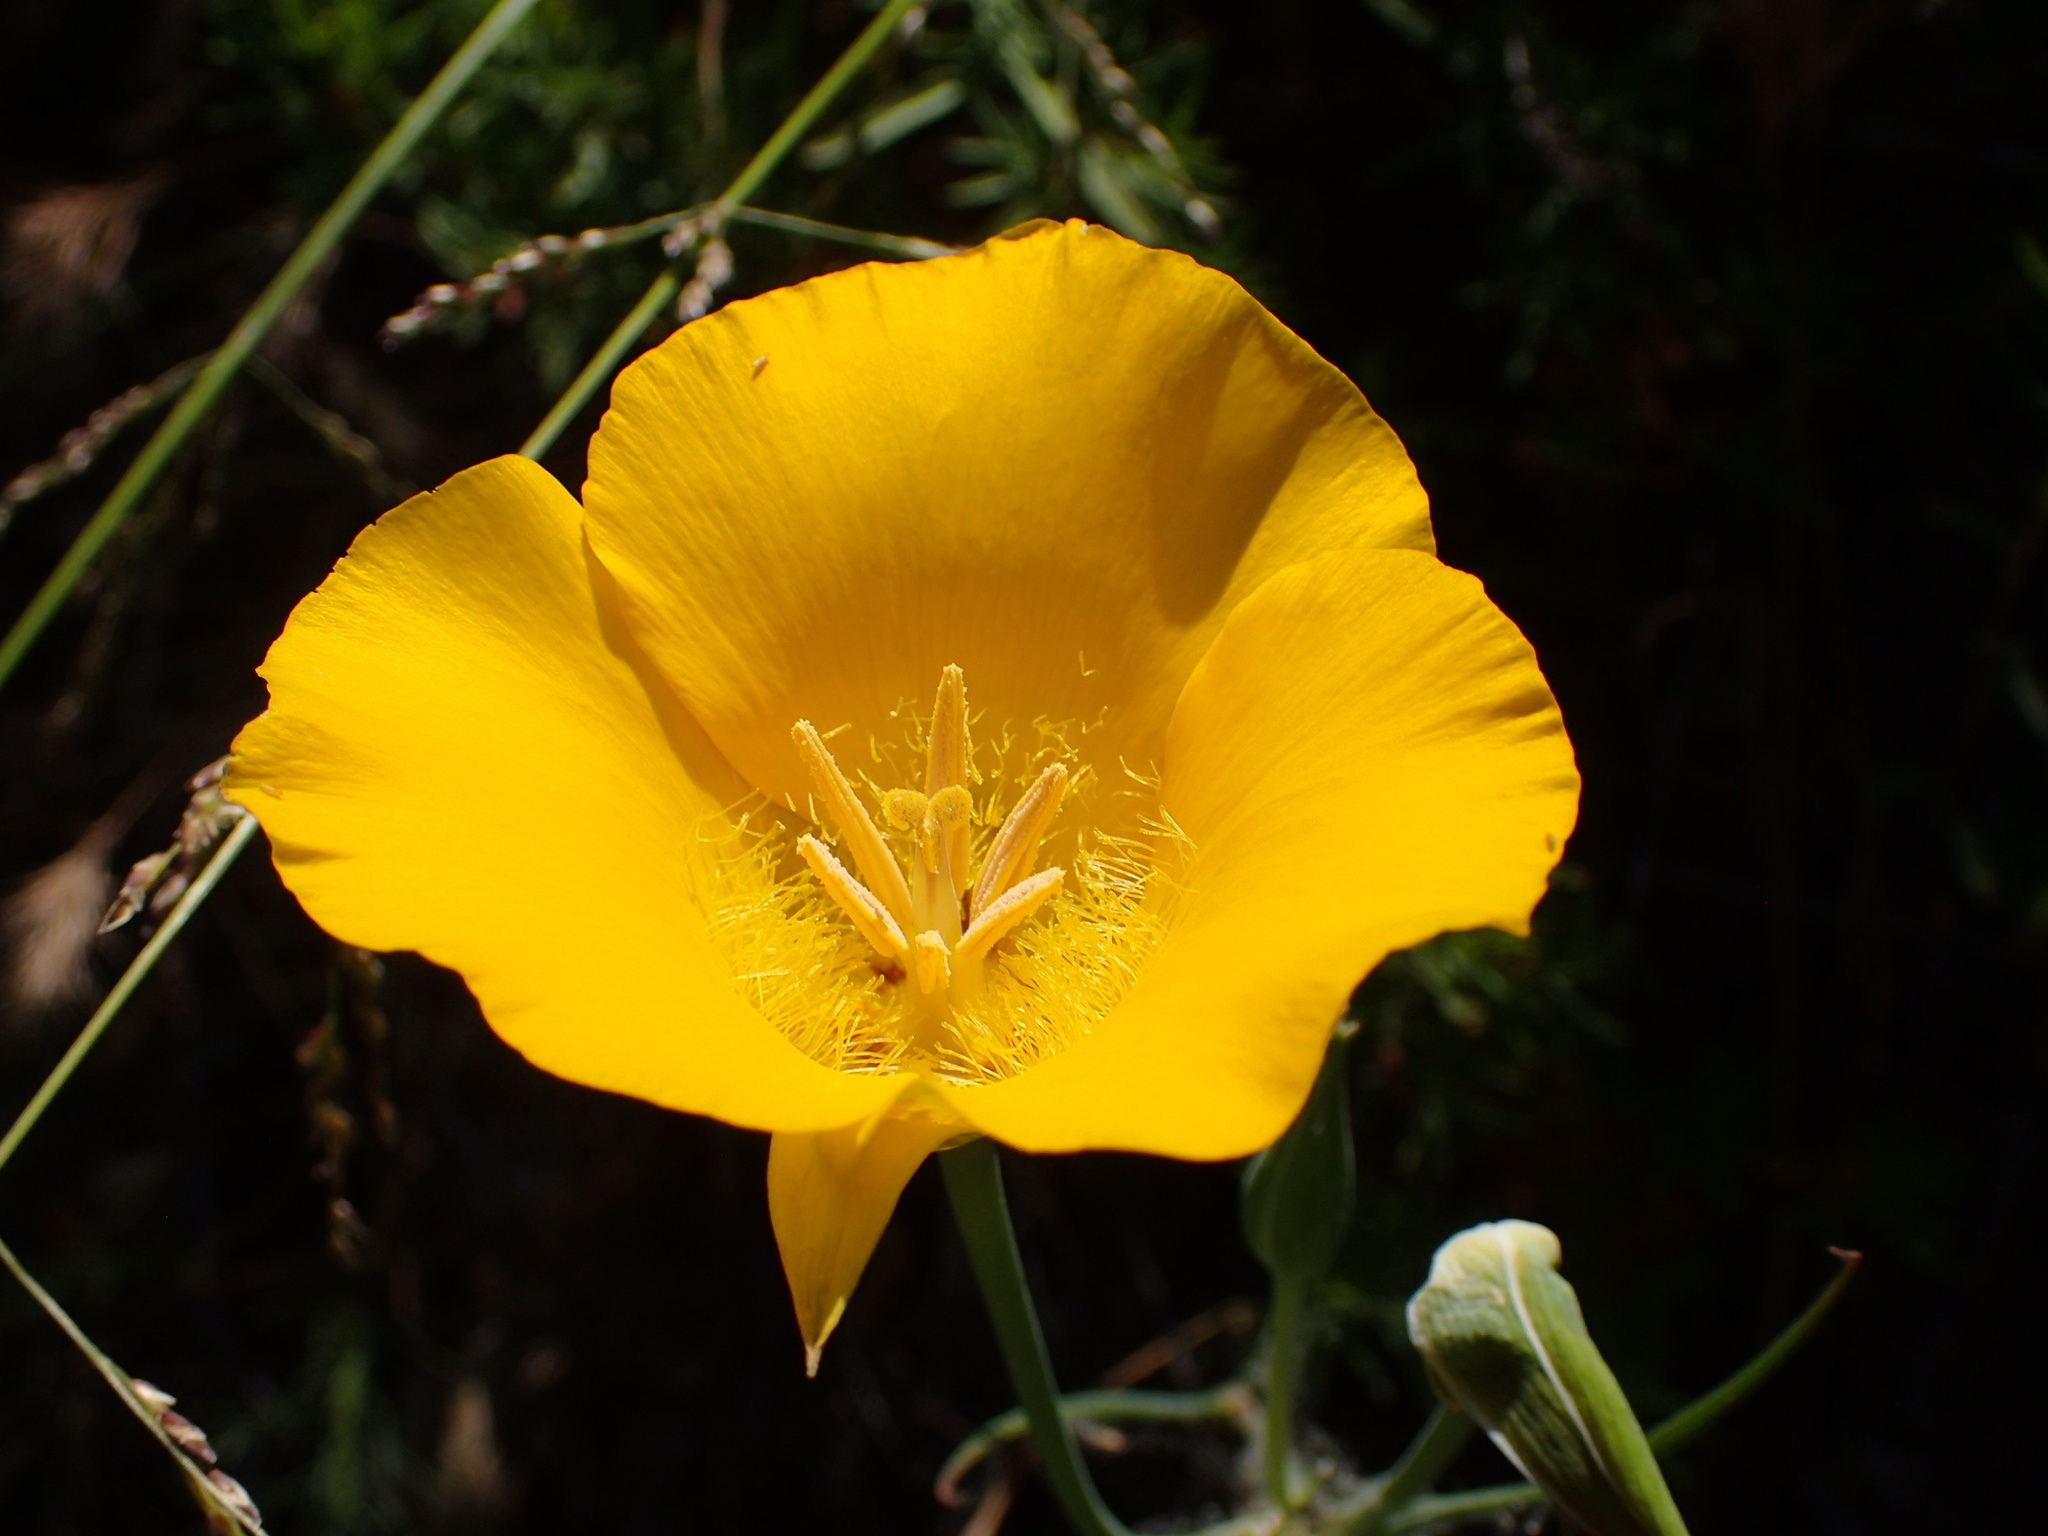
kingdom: Plantae
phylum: Tracheophyta
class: Liliopsida
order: Liliales
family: Liliaceae
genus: Calochortus
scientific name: Calochortus clavatus
